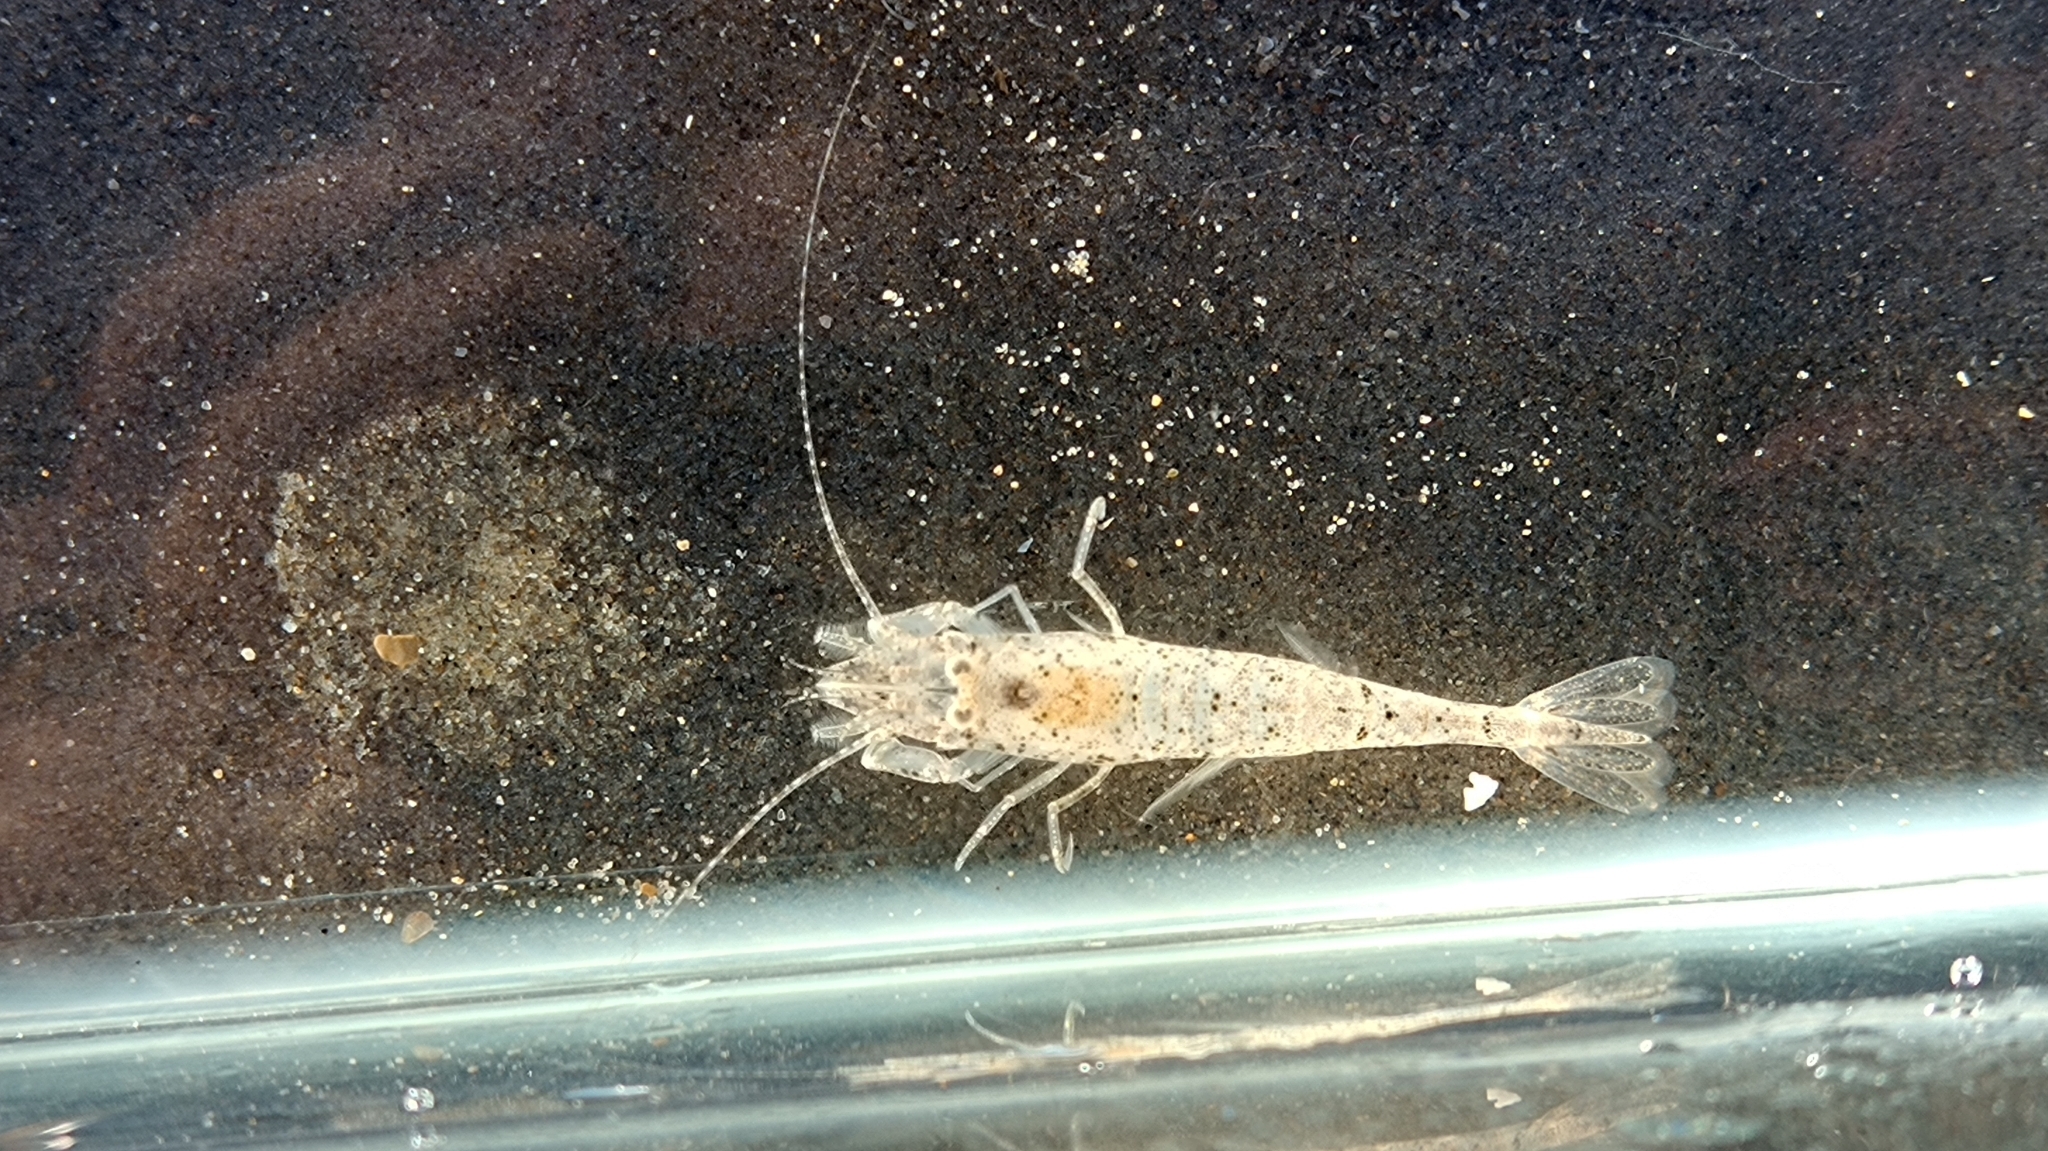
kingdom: Animalia
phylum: Arthropoda
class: Malacostraca
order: Decapoda
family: Crangonidae
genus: Crangon
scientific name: Crangon crangon
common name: Brown shrimp
